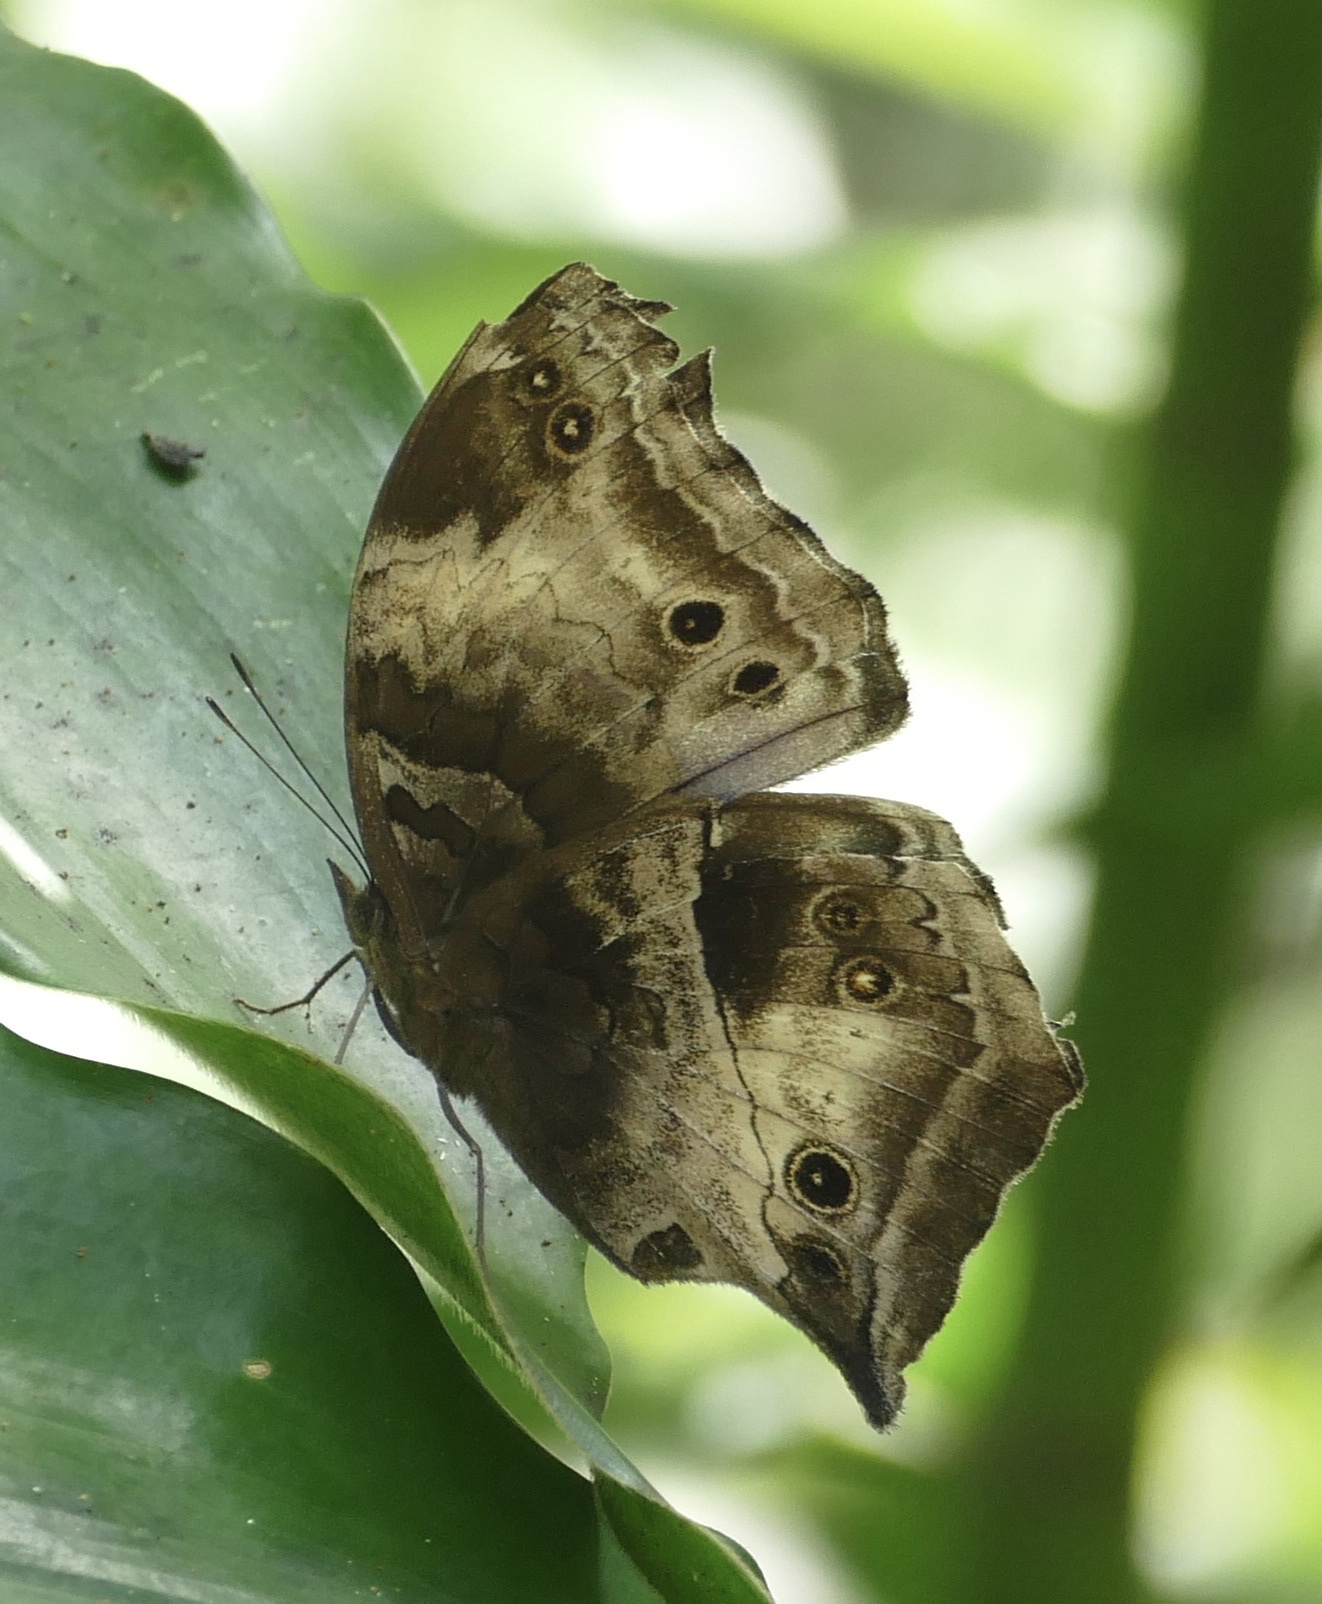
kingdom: Animalia
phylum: Arthropoda
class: Insecta
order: Lepidoptera
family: Nymphalidae
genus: Junonia
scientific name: Junonia
